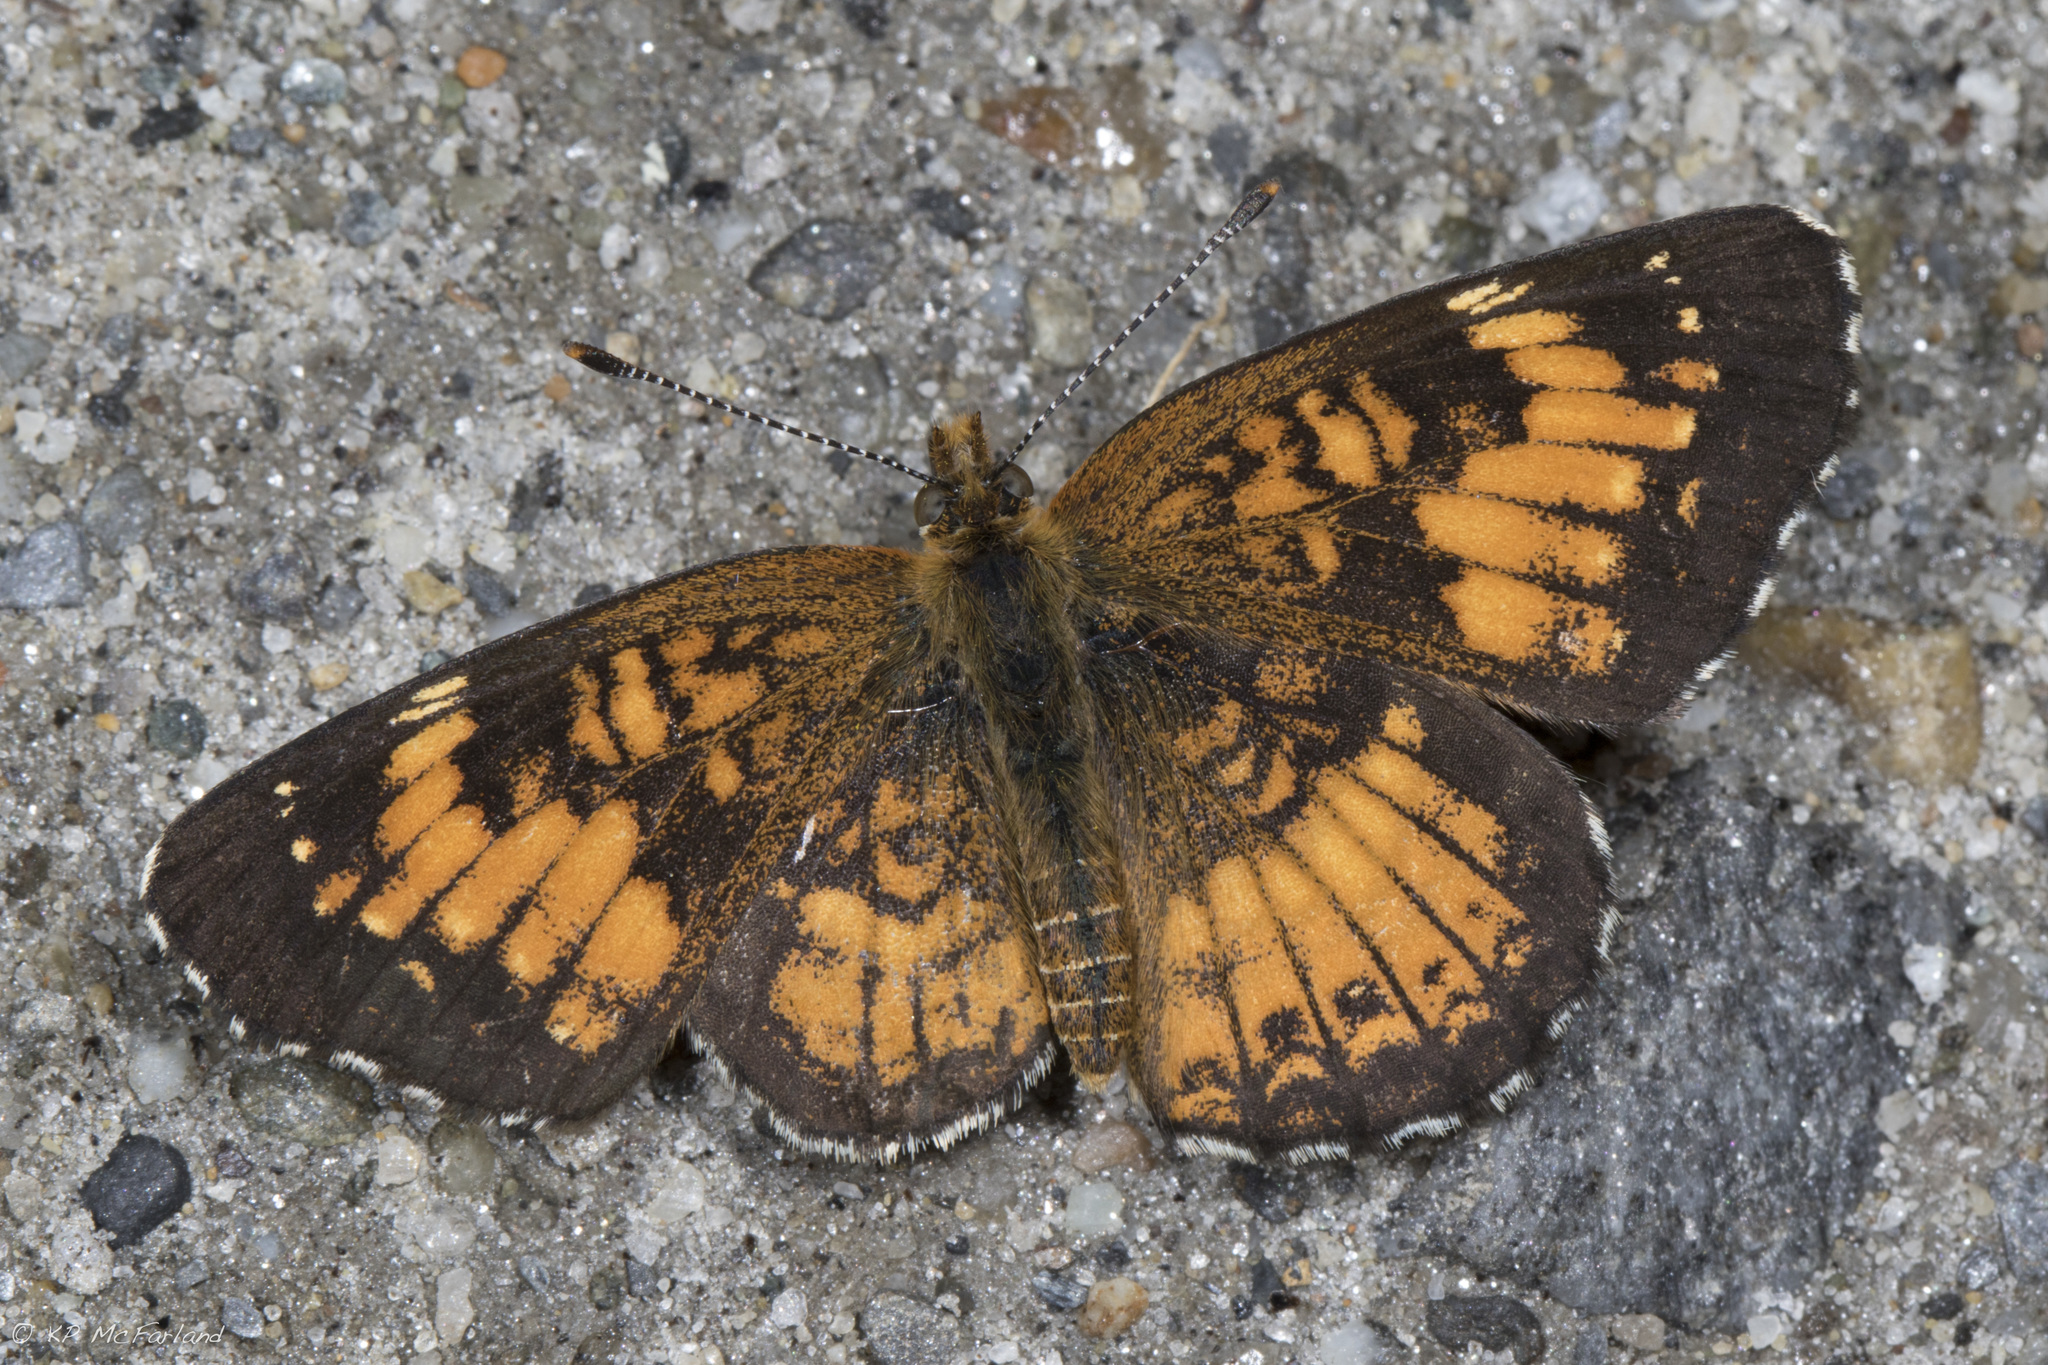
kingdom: Animalia
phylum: Arthropoda
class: Insecta
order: Lepidoptera
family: Nymphalidae
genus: Chlosyne
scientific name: Chlosyne harrisii
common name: Harris's checkerspot
